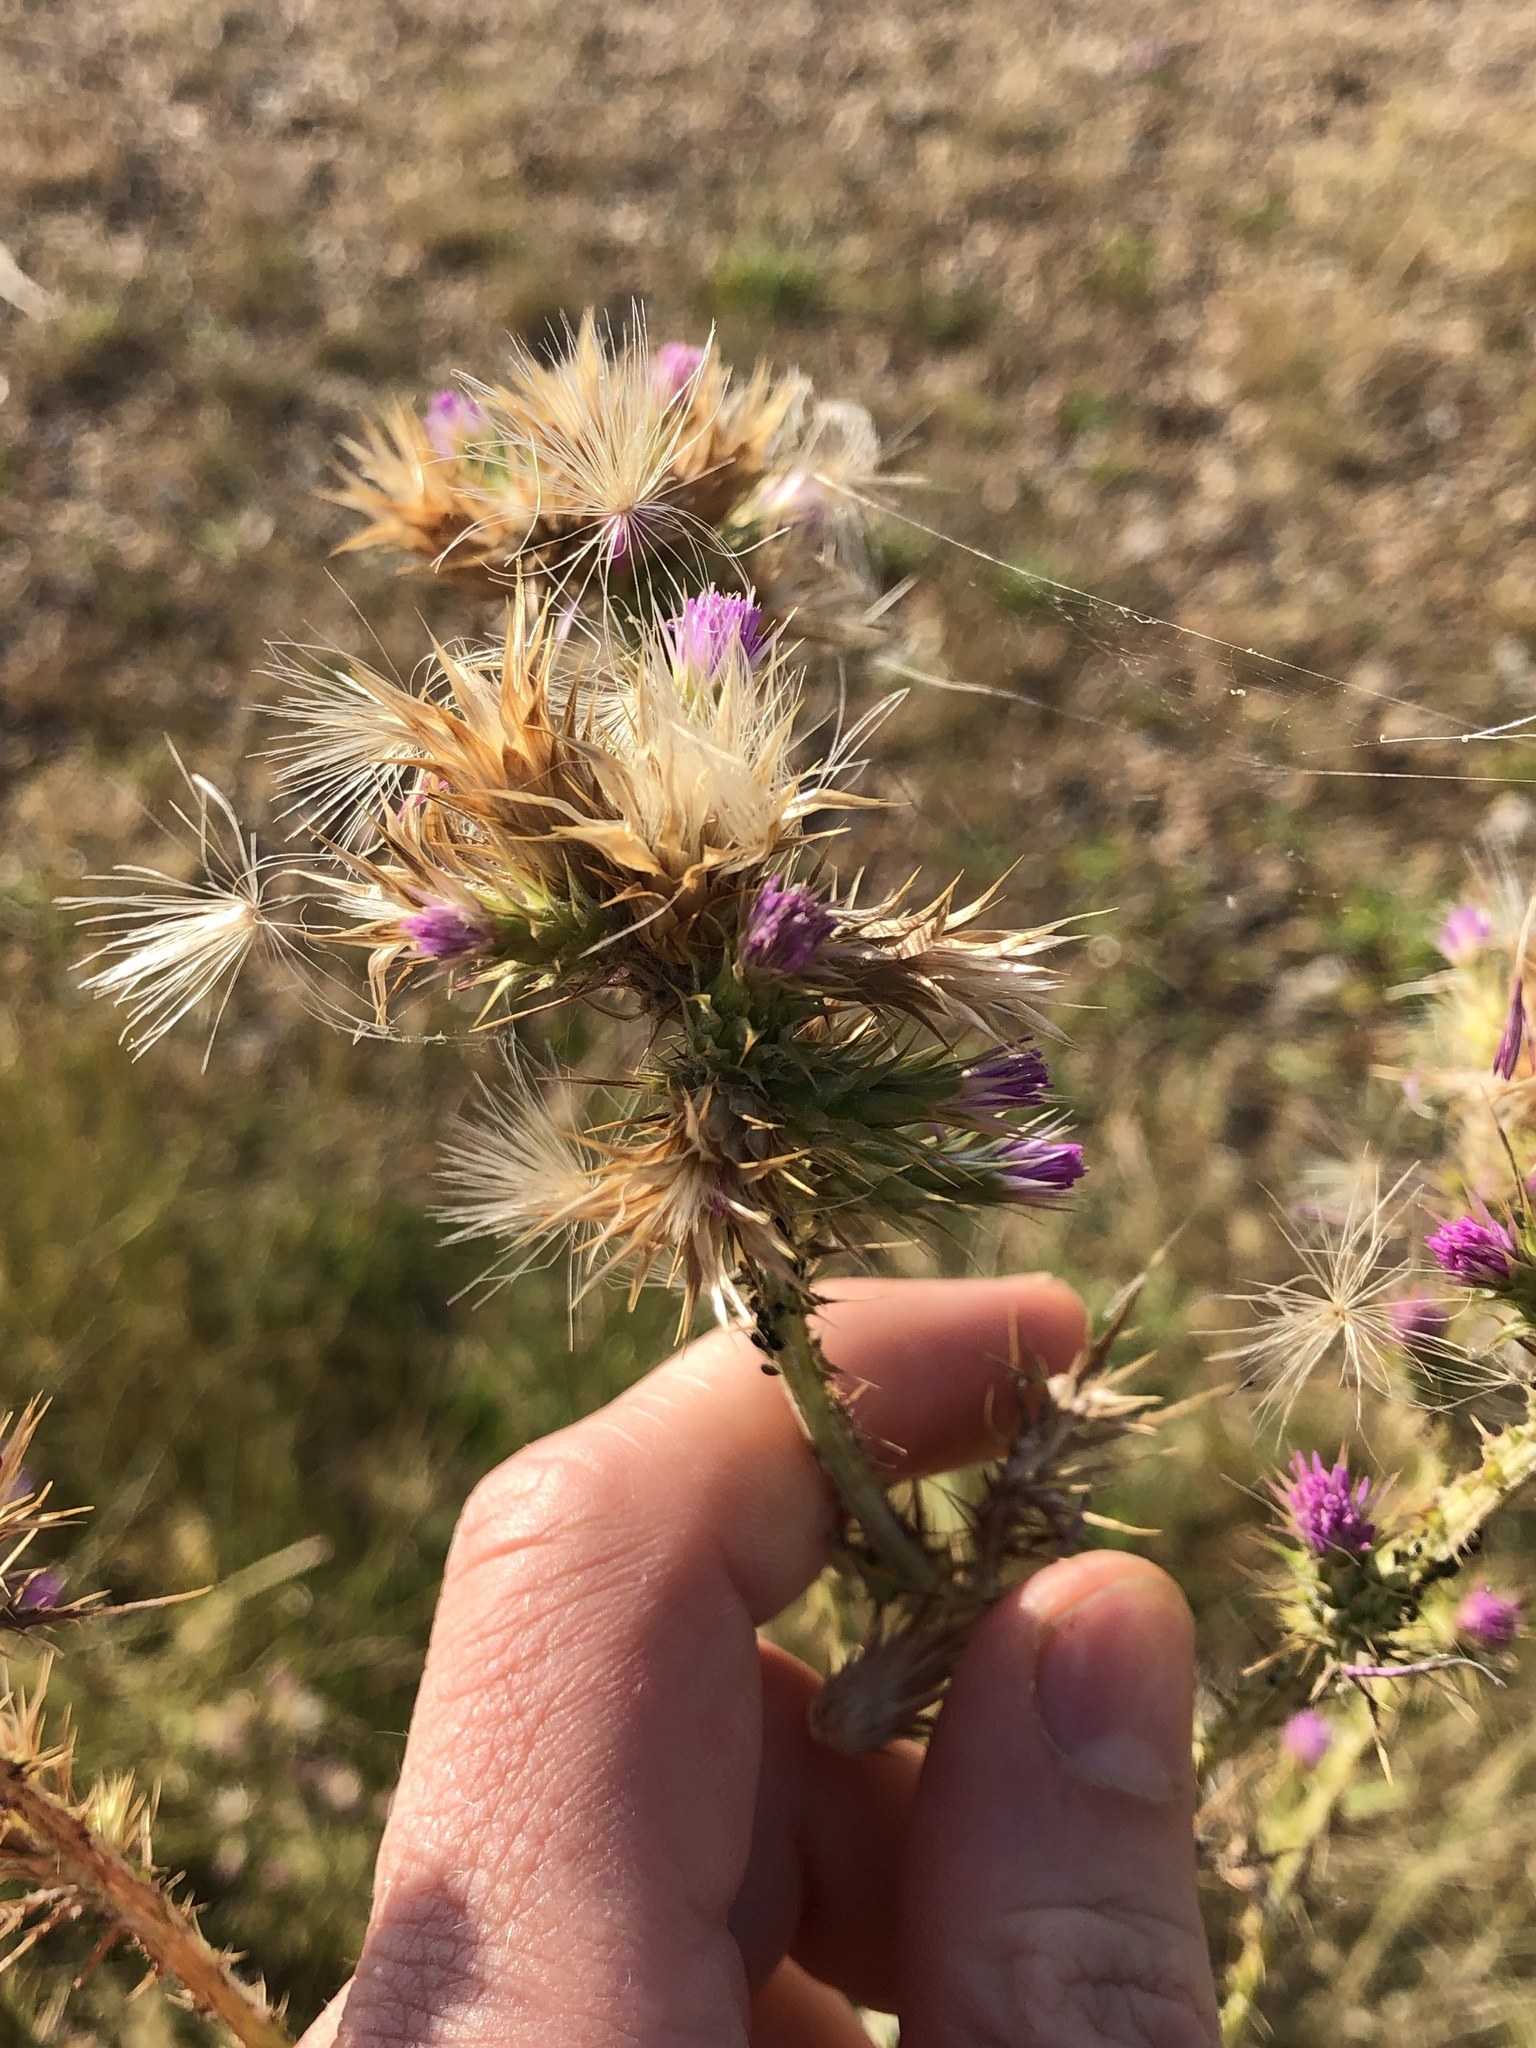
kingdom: Plantae
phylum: Tracheophyta
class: Magnoliopsida
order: Asterales
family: Asteraceae
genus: Carduus
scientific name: Carduus tenuiflorus
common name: Slender thistle
